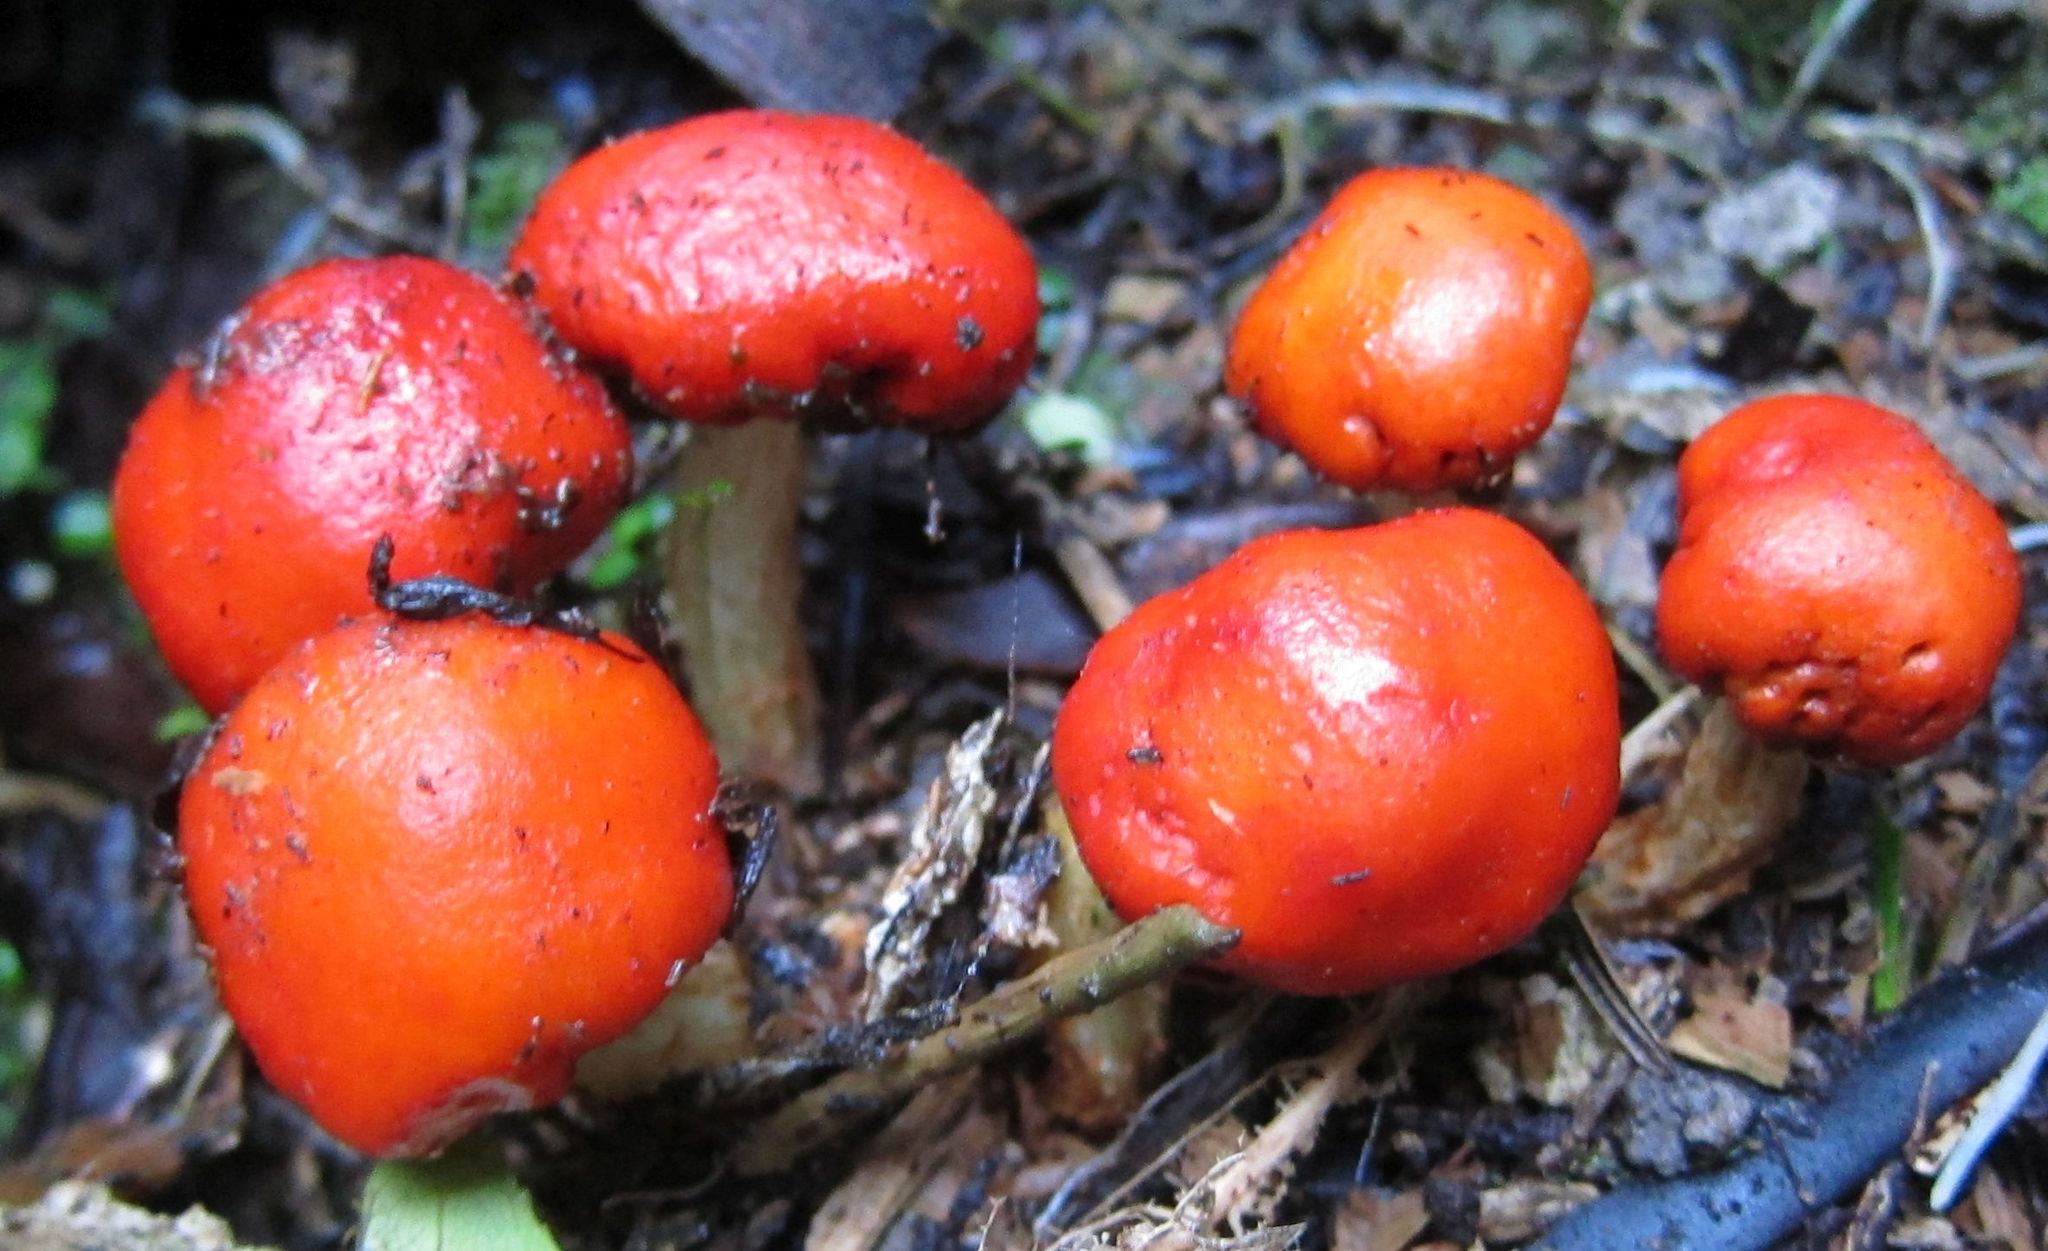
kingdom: Fungi
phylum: Basidiomycota
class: Agaricomycetes
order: Agaricales
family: Strophariaceae
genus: Leratiomyces
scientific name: Leratiomyces erythrocephalus
